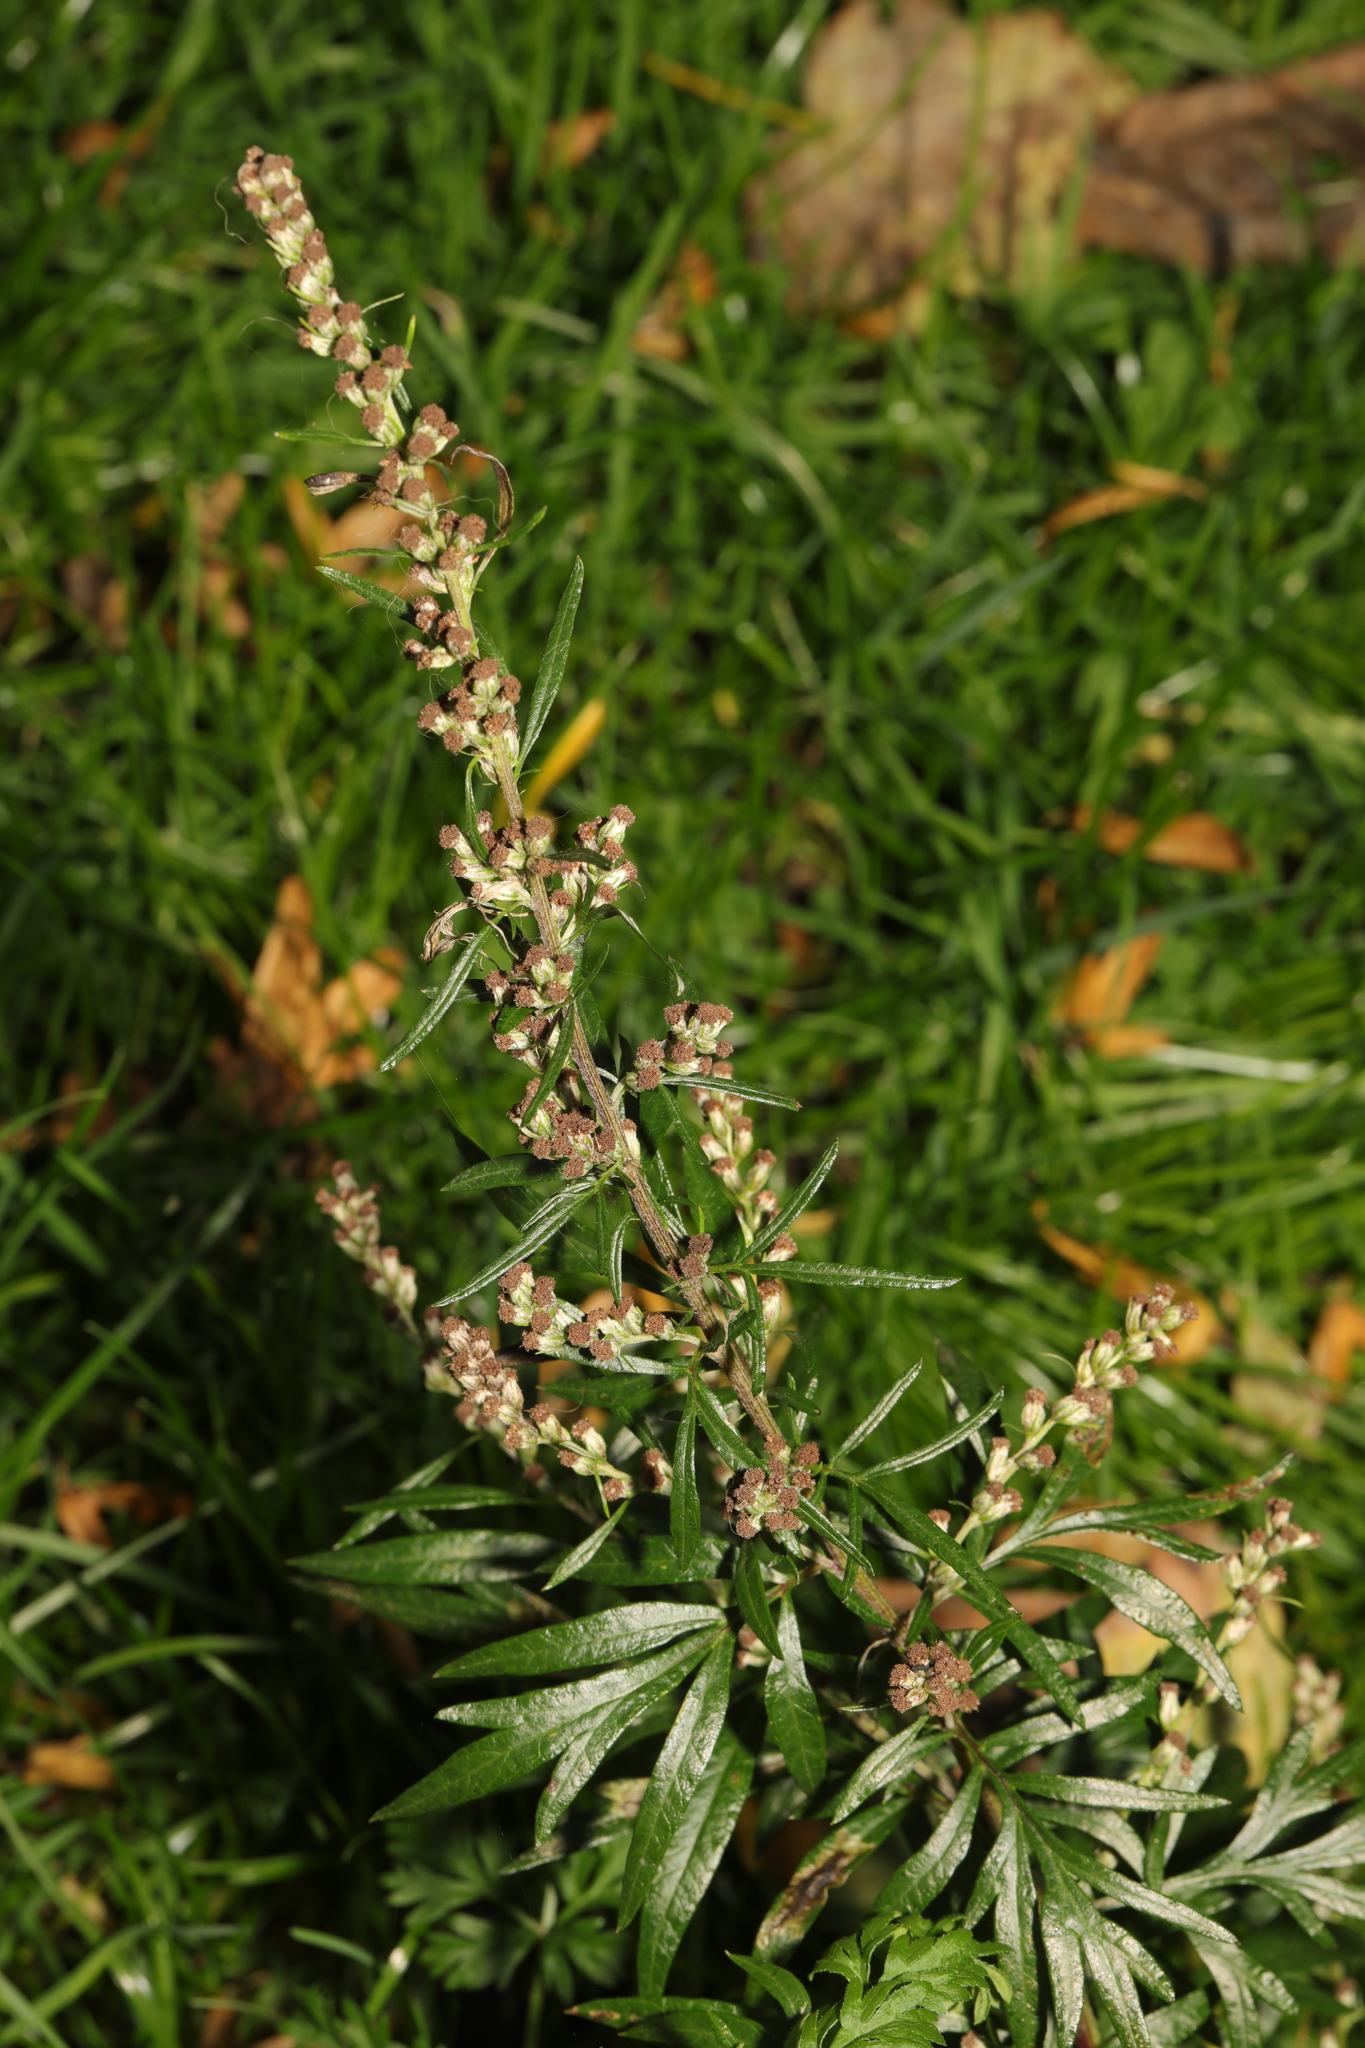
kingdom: Plantae
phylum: Tracheophyta
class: Magnoliopsida
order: Asterales
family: Asteraceae
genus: Artemisia
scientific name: Artemisia vulgaris
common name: Mugwort
